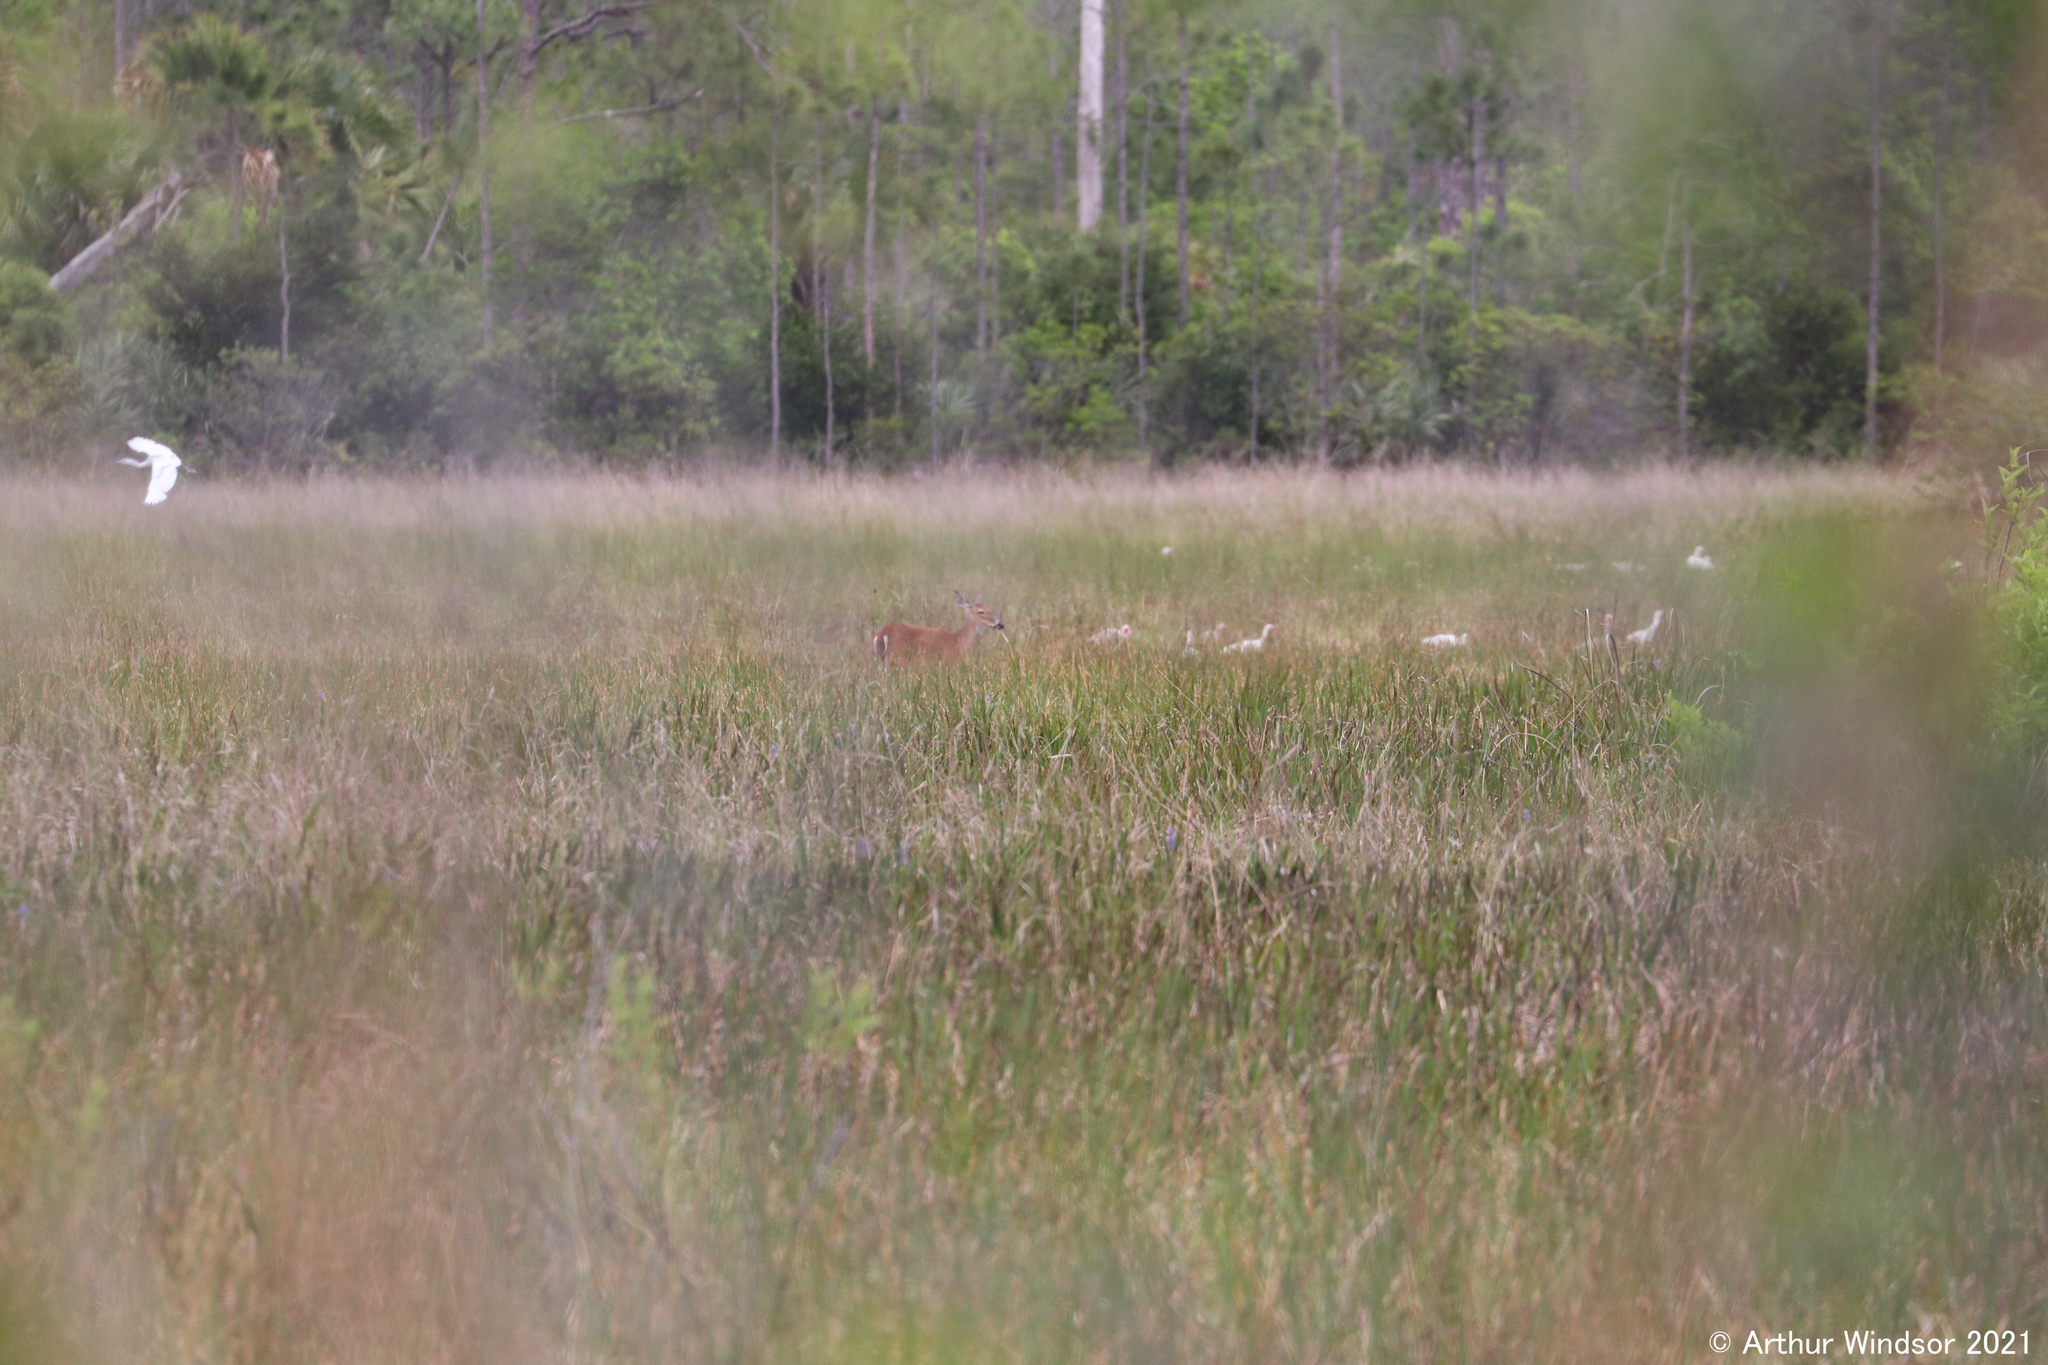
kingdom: Animalia
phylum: Chordata
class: Mammalia
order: Artiodactyla
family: Cervidae
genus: Odocoileus
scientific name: Odocoileus virginianus
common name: White-tailed deer
